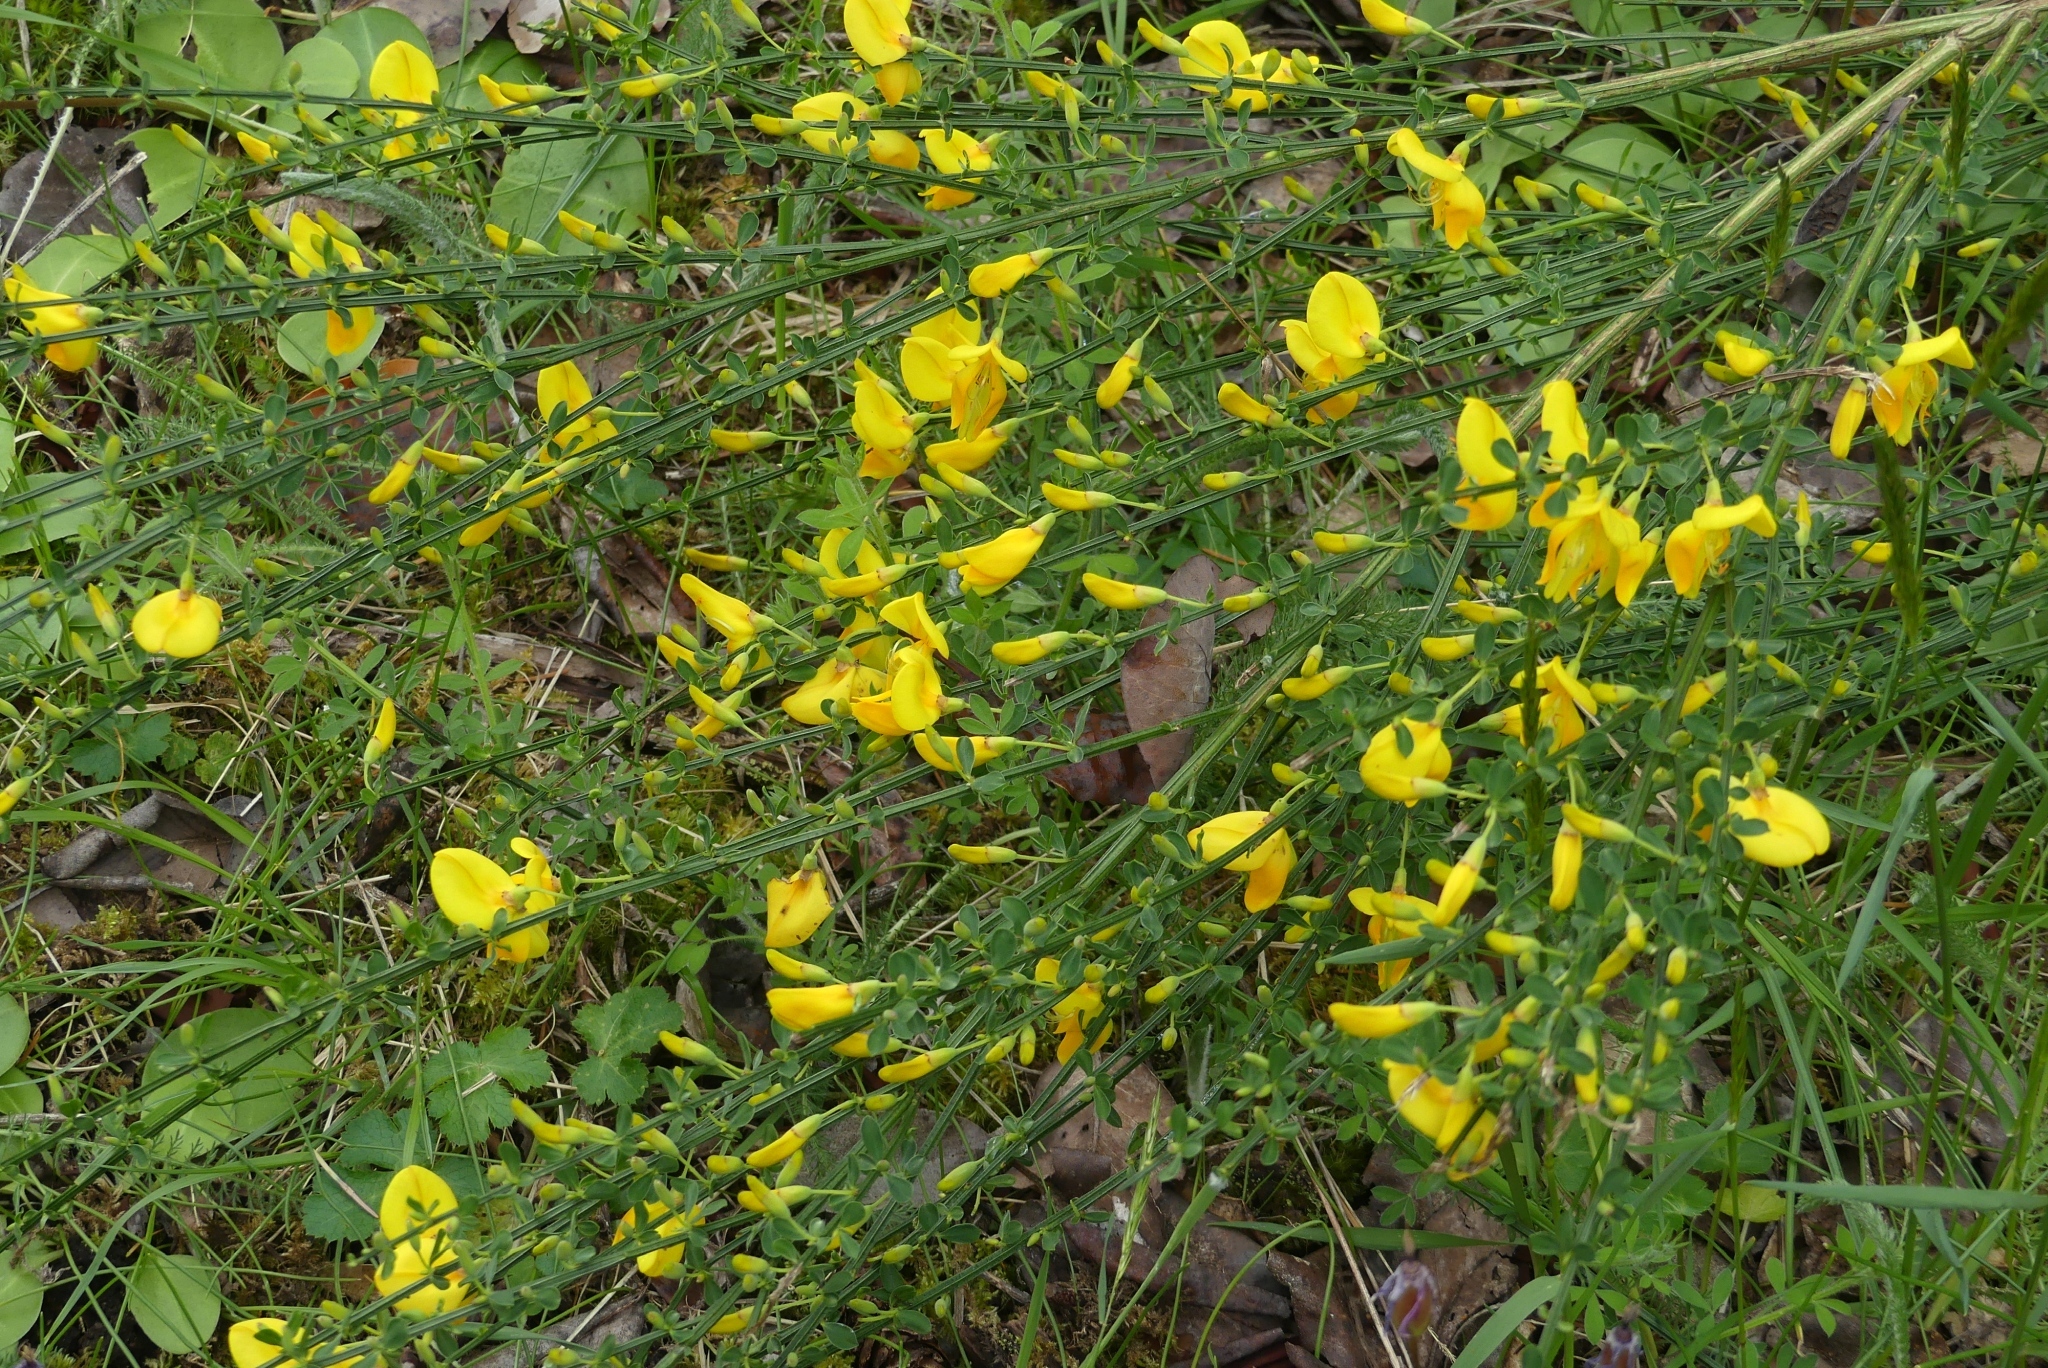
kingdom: Plantae
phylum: Tracheophyta
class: Magnoliopsida
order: Fabales
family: Fabaceae
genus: Cytisus
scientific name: Cytisus scoparius
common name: Scotch broom
